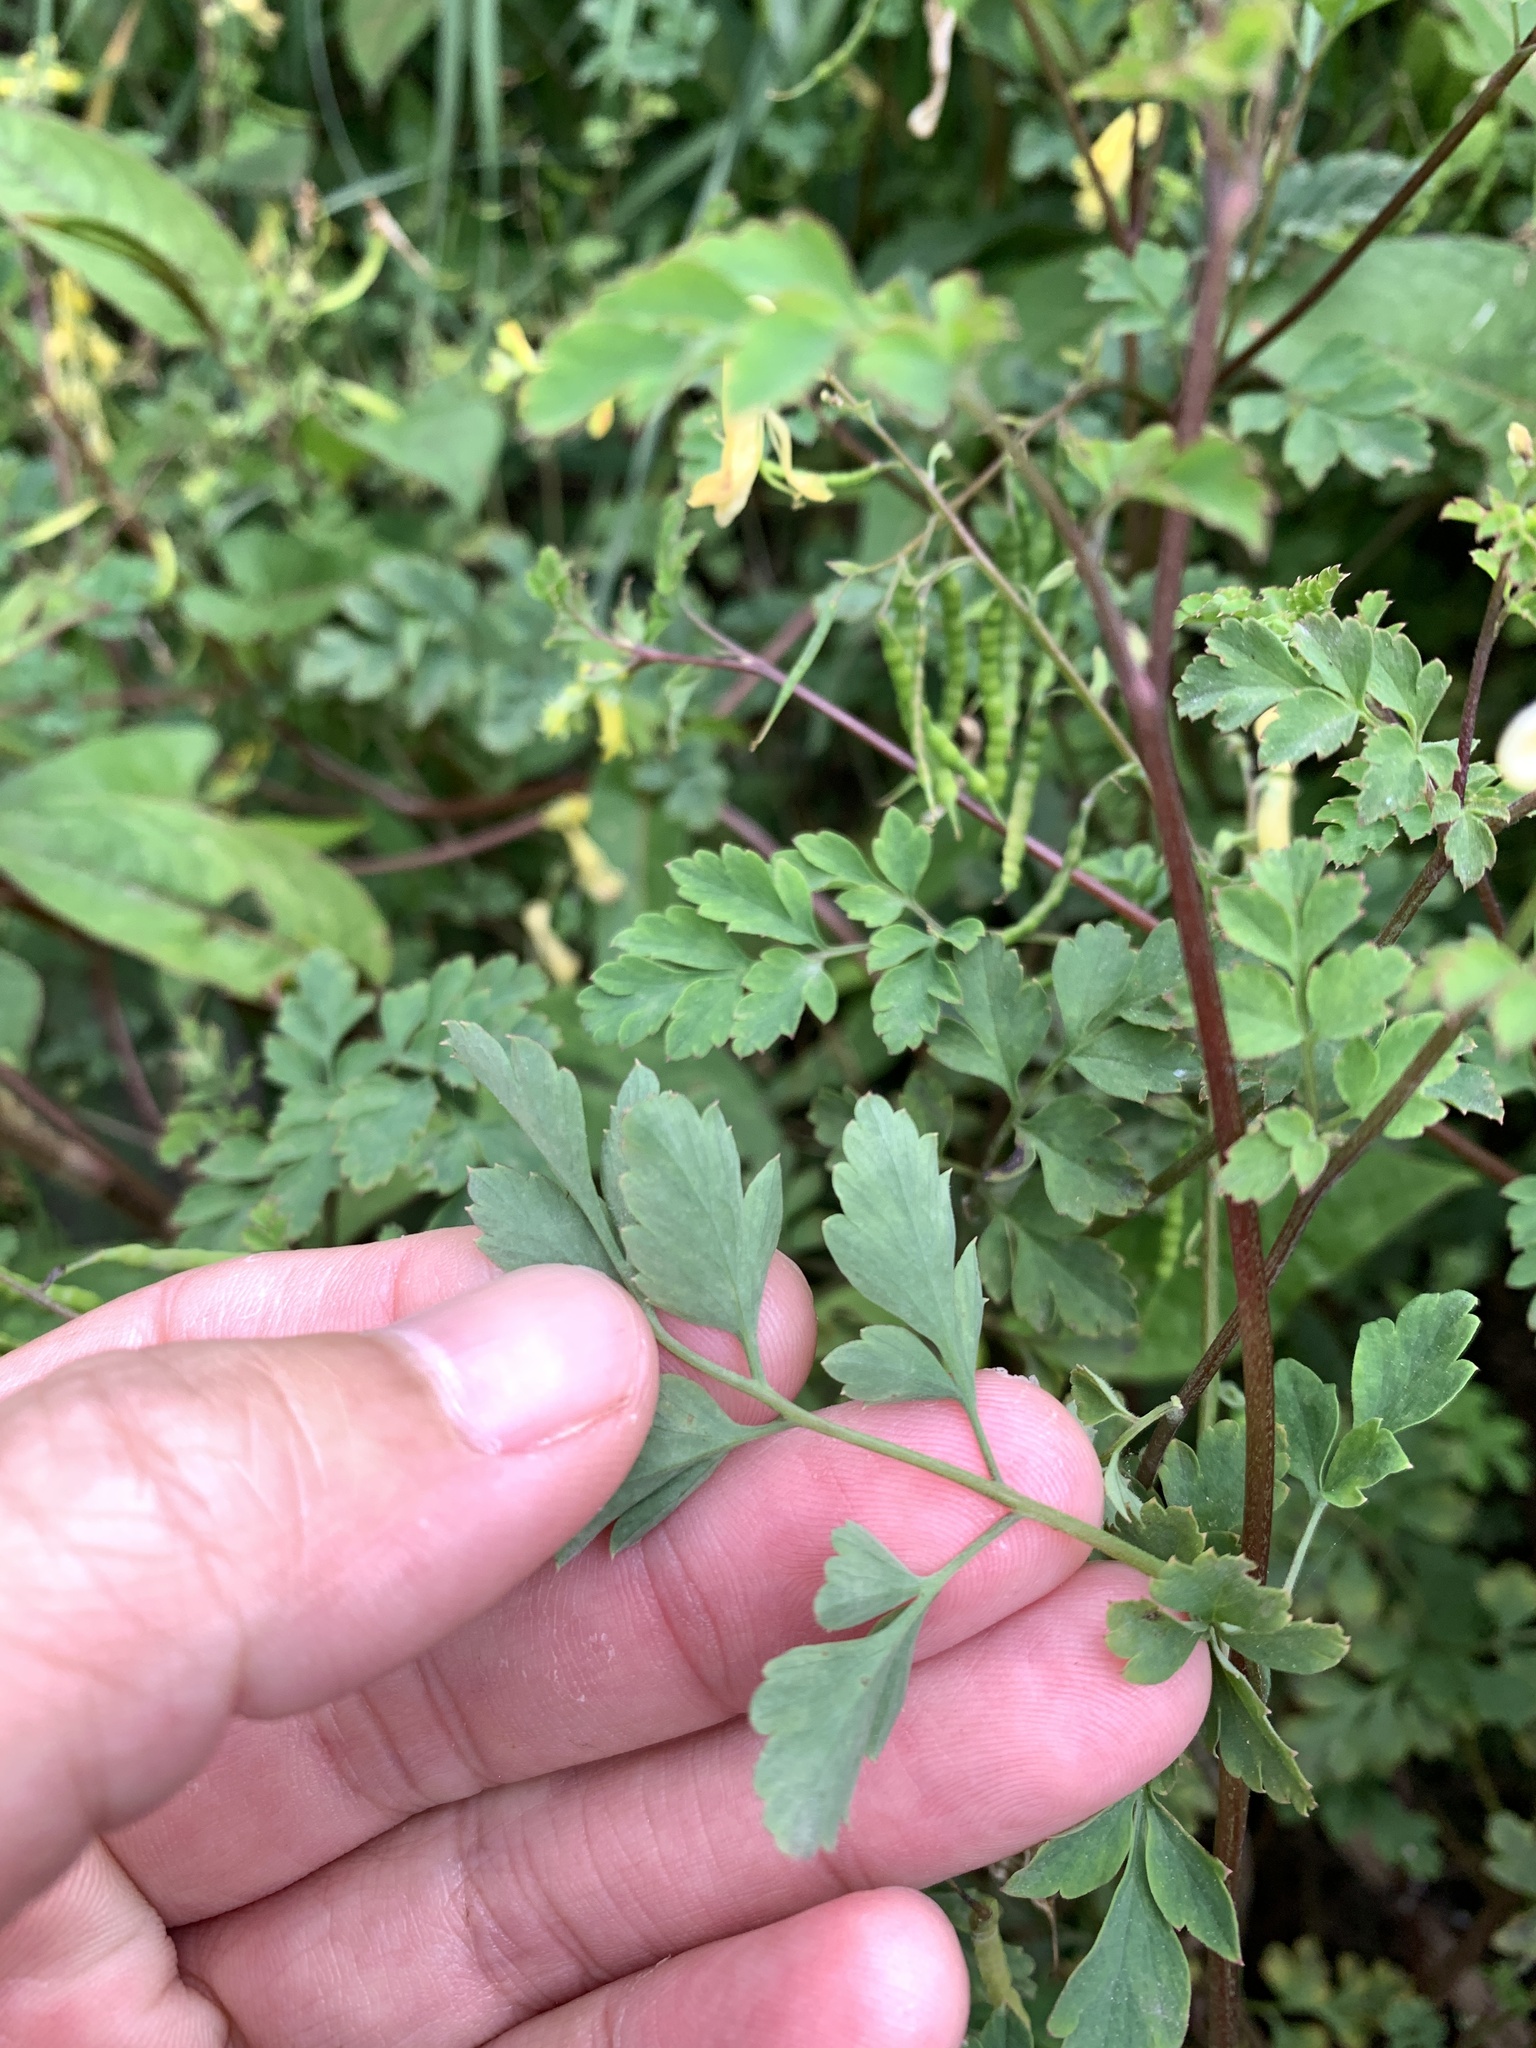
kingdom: Plantae
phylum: Tracheophyta
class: Magnoliopsida
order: Ranunculales
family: Papaveraceae
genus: Corydalis
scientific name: Corydalis pallida
